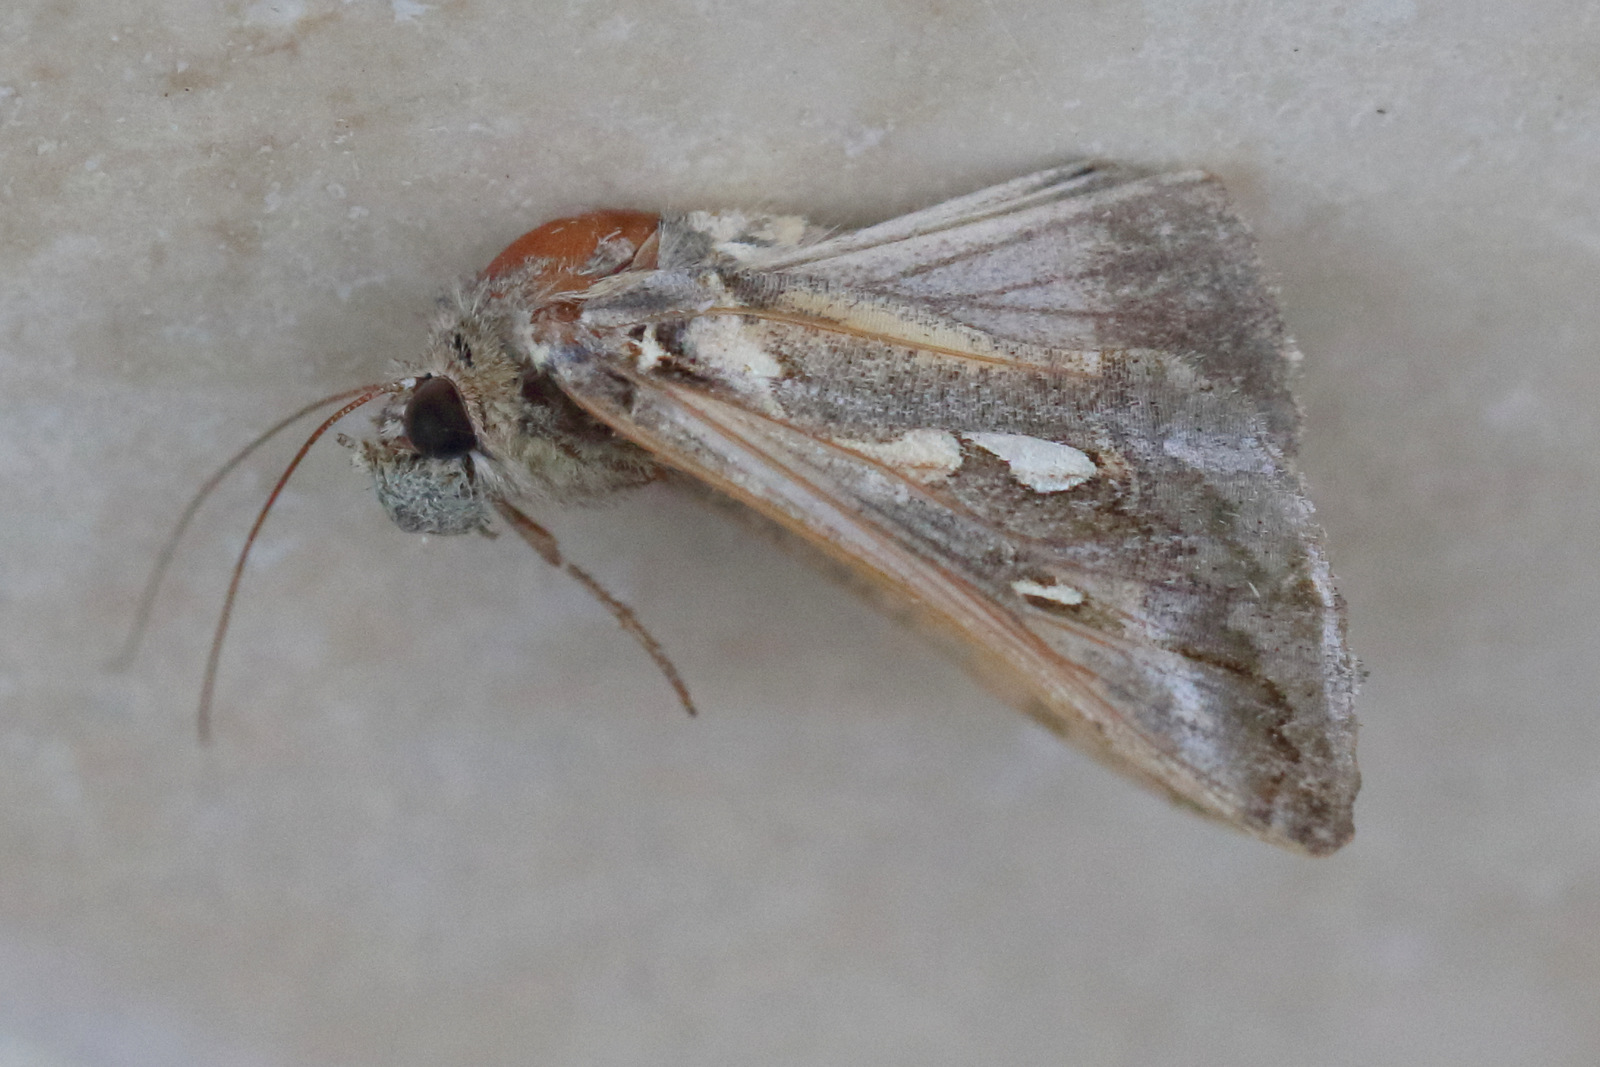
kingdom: Animalia
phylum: Arthropoda
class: Insecta
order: Lepidoptera
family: Noctuidae
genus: Chrysodeixis
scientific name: Chrysodeixis argentifera
